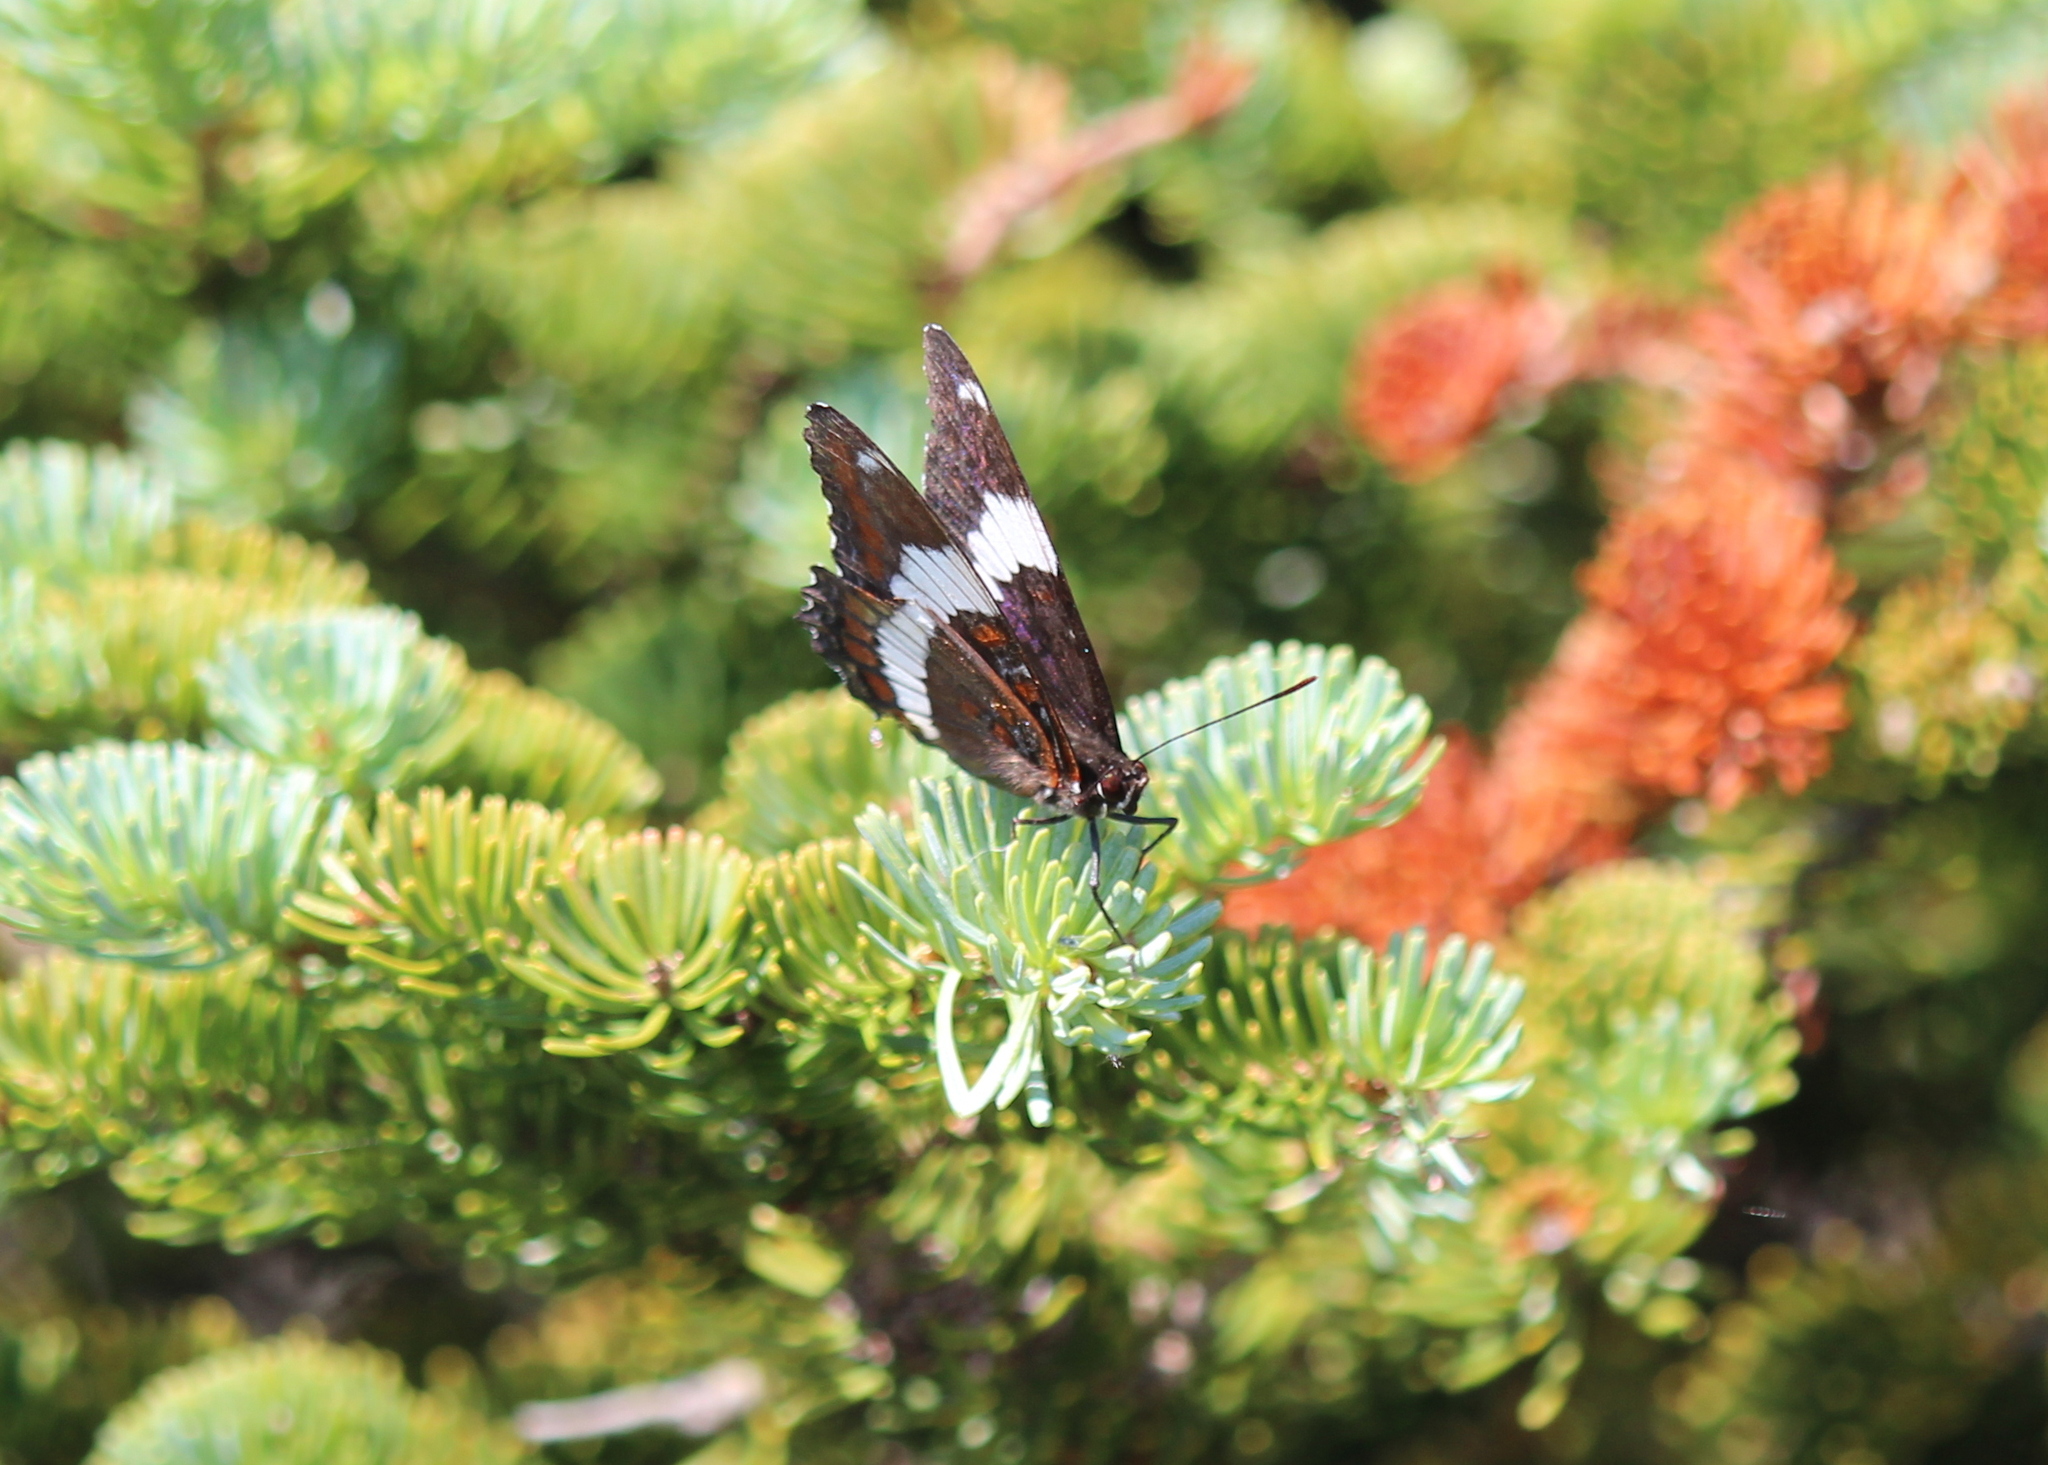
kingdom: Animalia
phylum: Arthropoda
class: Insecta
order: Lepidoptera
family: Nymphalidae
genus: Limenitis
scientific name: Limenitis arthemis
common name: Red-spotted admiral
